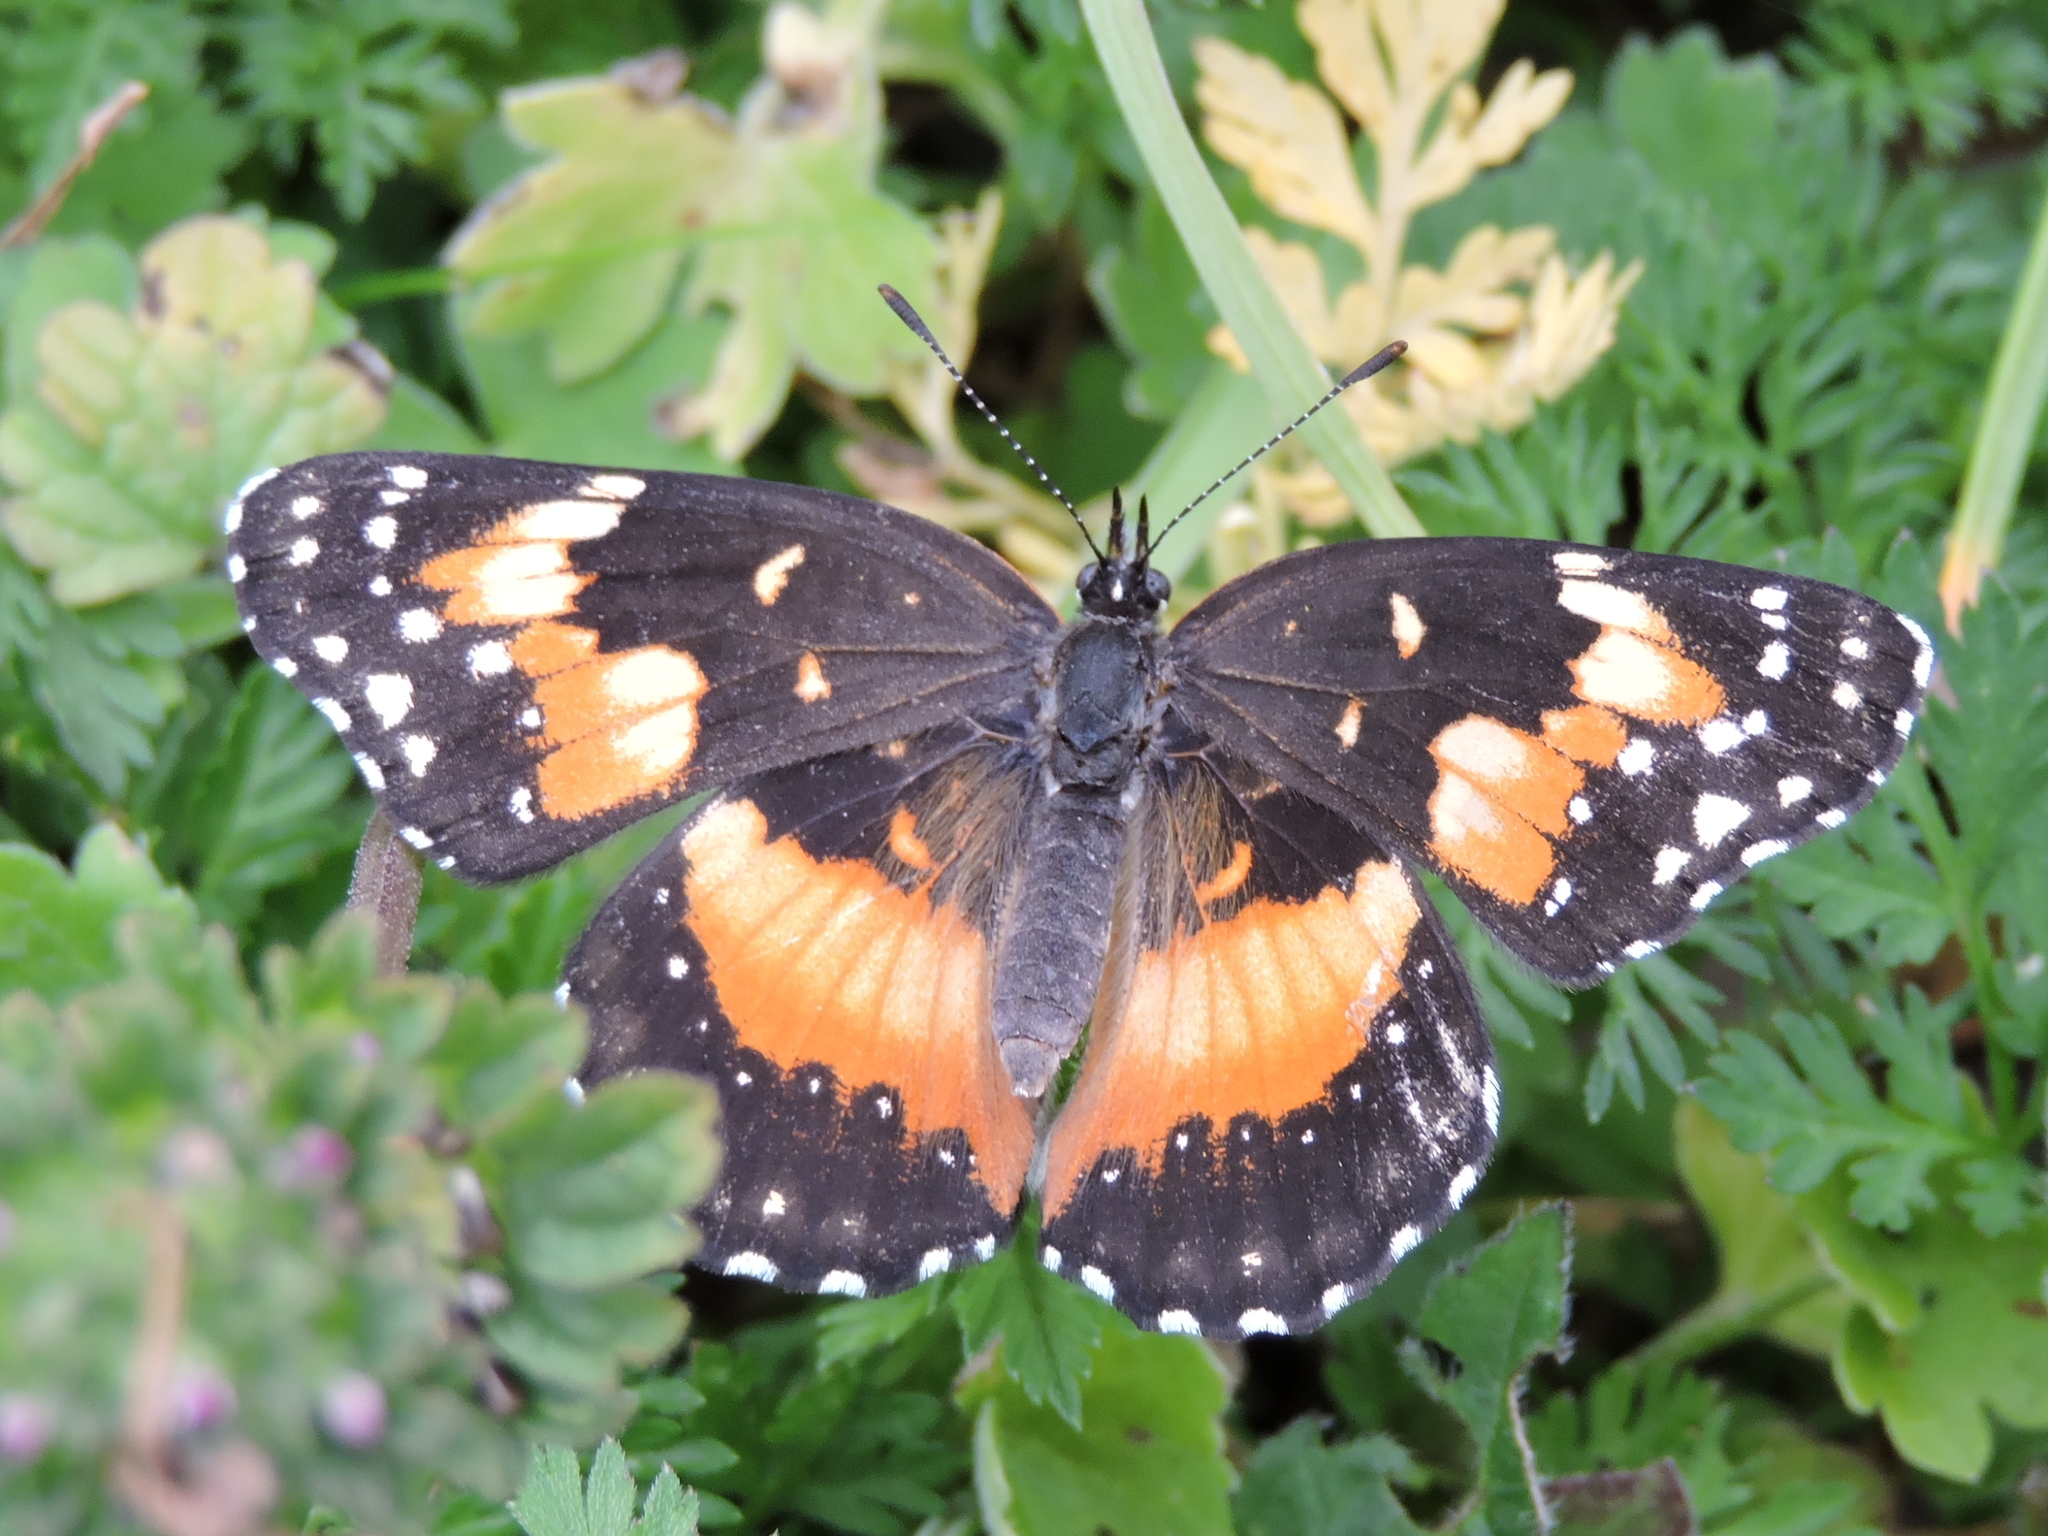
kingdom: Animalia
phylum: Arthropoda
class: Insecta
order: Lepidoptera
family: Nymphalidae
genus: Chlosyne
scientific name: Chlosyne lacinia
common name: Bordered patch
